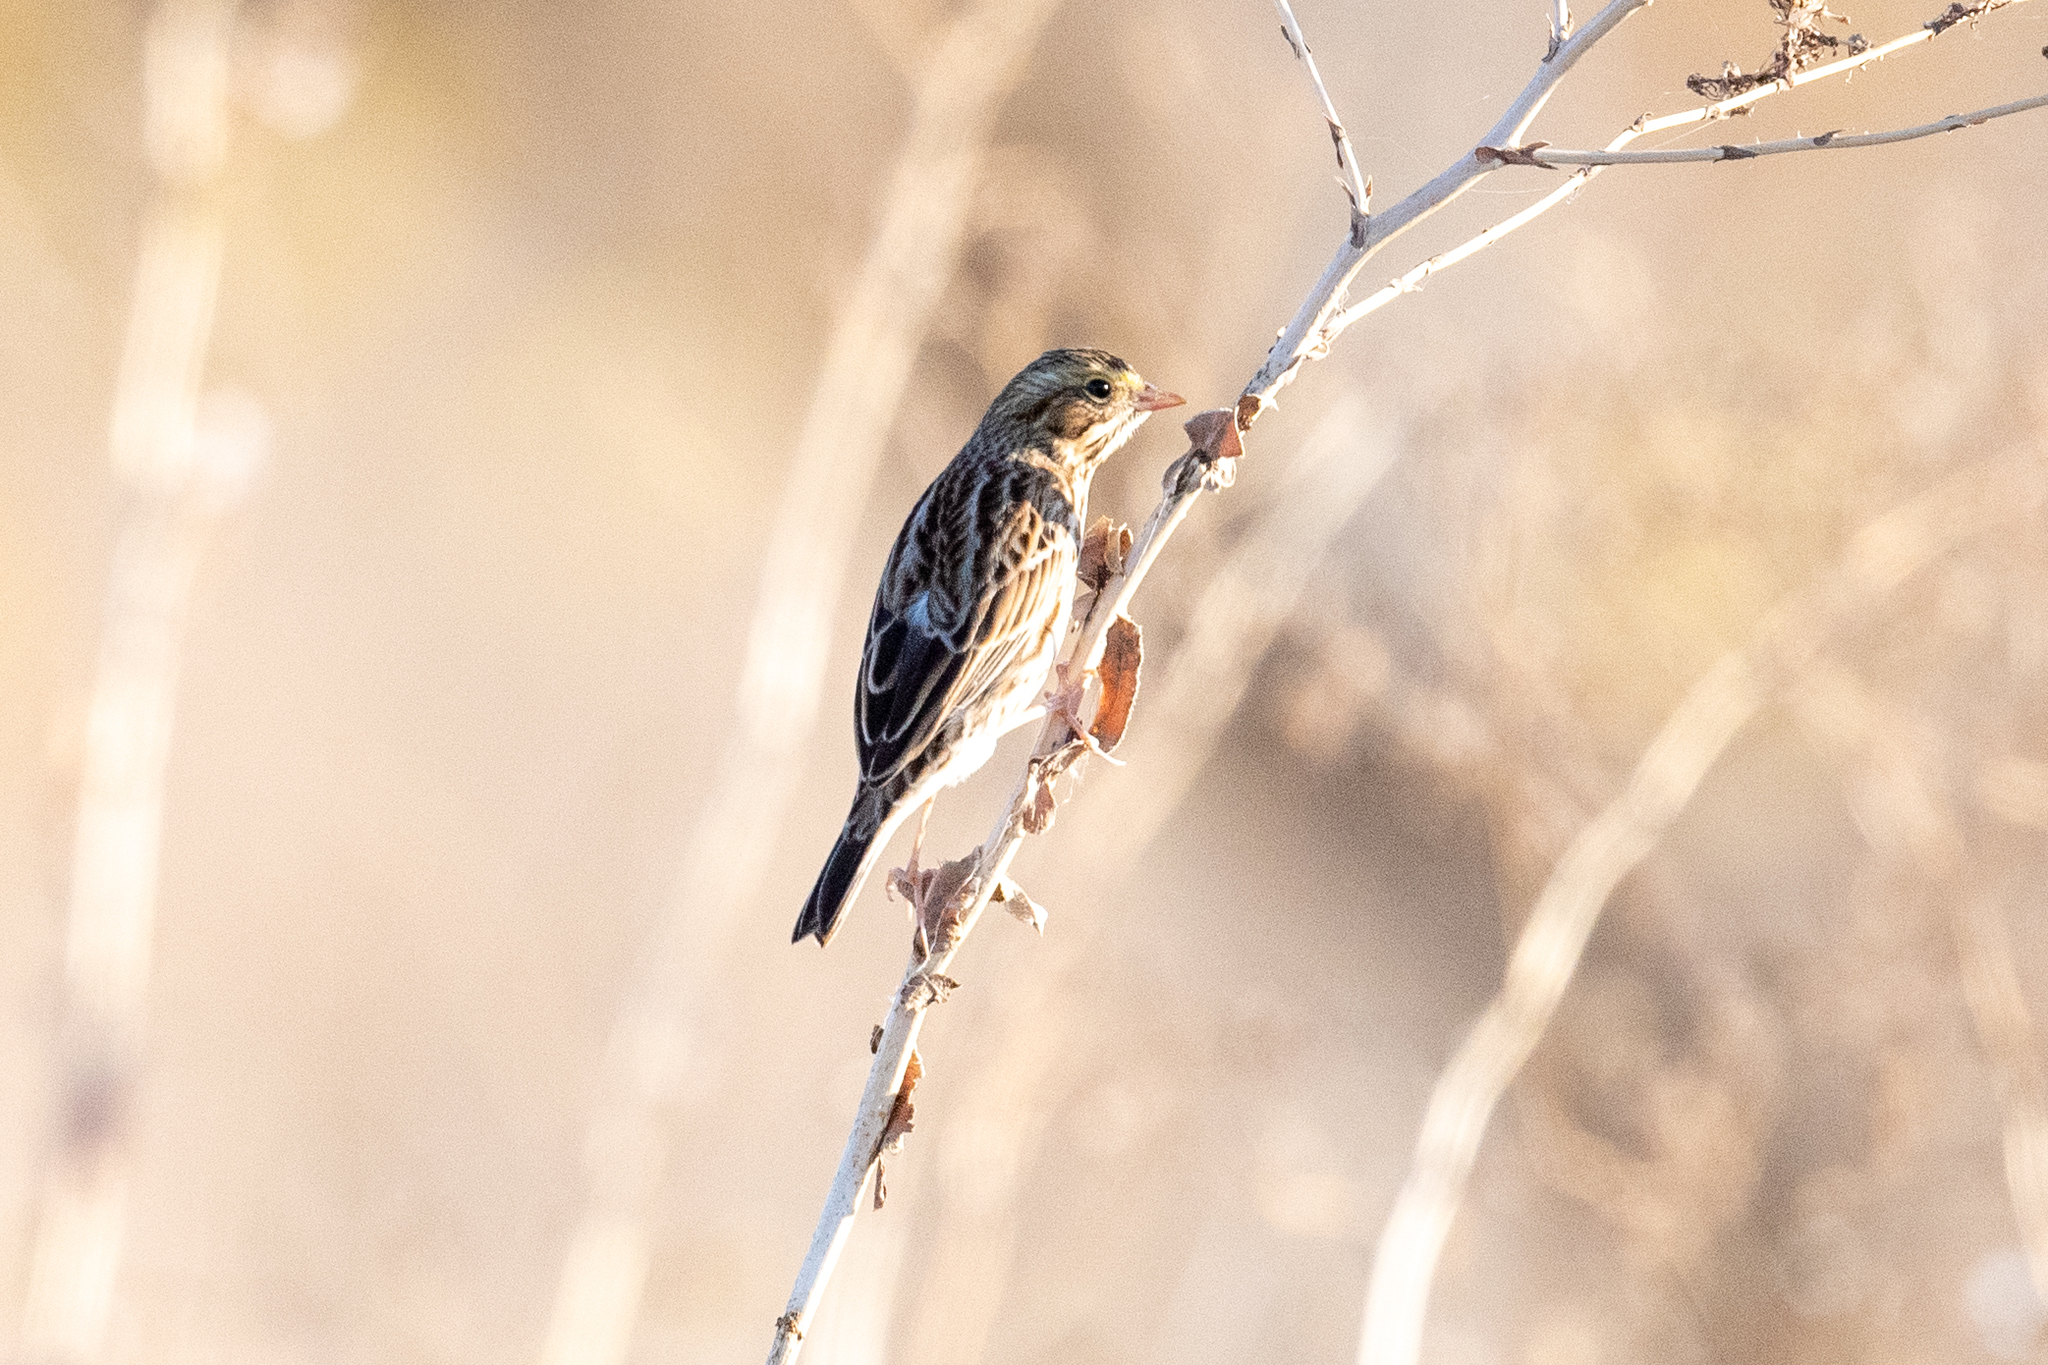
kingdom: Animalia
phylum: Chordata
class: Aves
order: Passeriformes
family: Passerellidae
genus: Passerculus
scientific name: Passerculus sandwichensis
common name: Savannah sparrow
